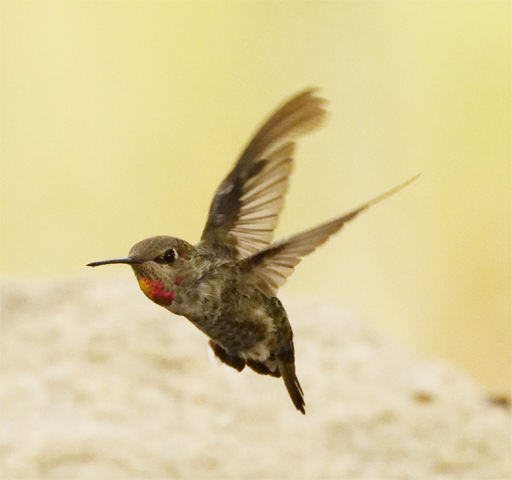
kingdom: Animalia
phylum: Chordata
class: Aves
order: Apodiformes
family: Trochilidae
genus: Calypte
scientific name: Calypte anna
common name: Anna's hummingbird
